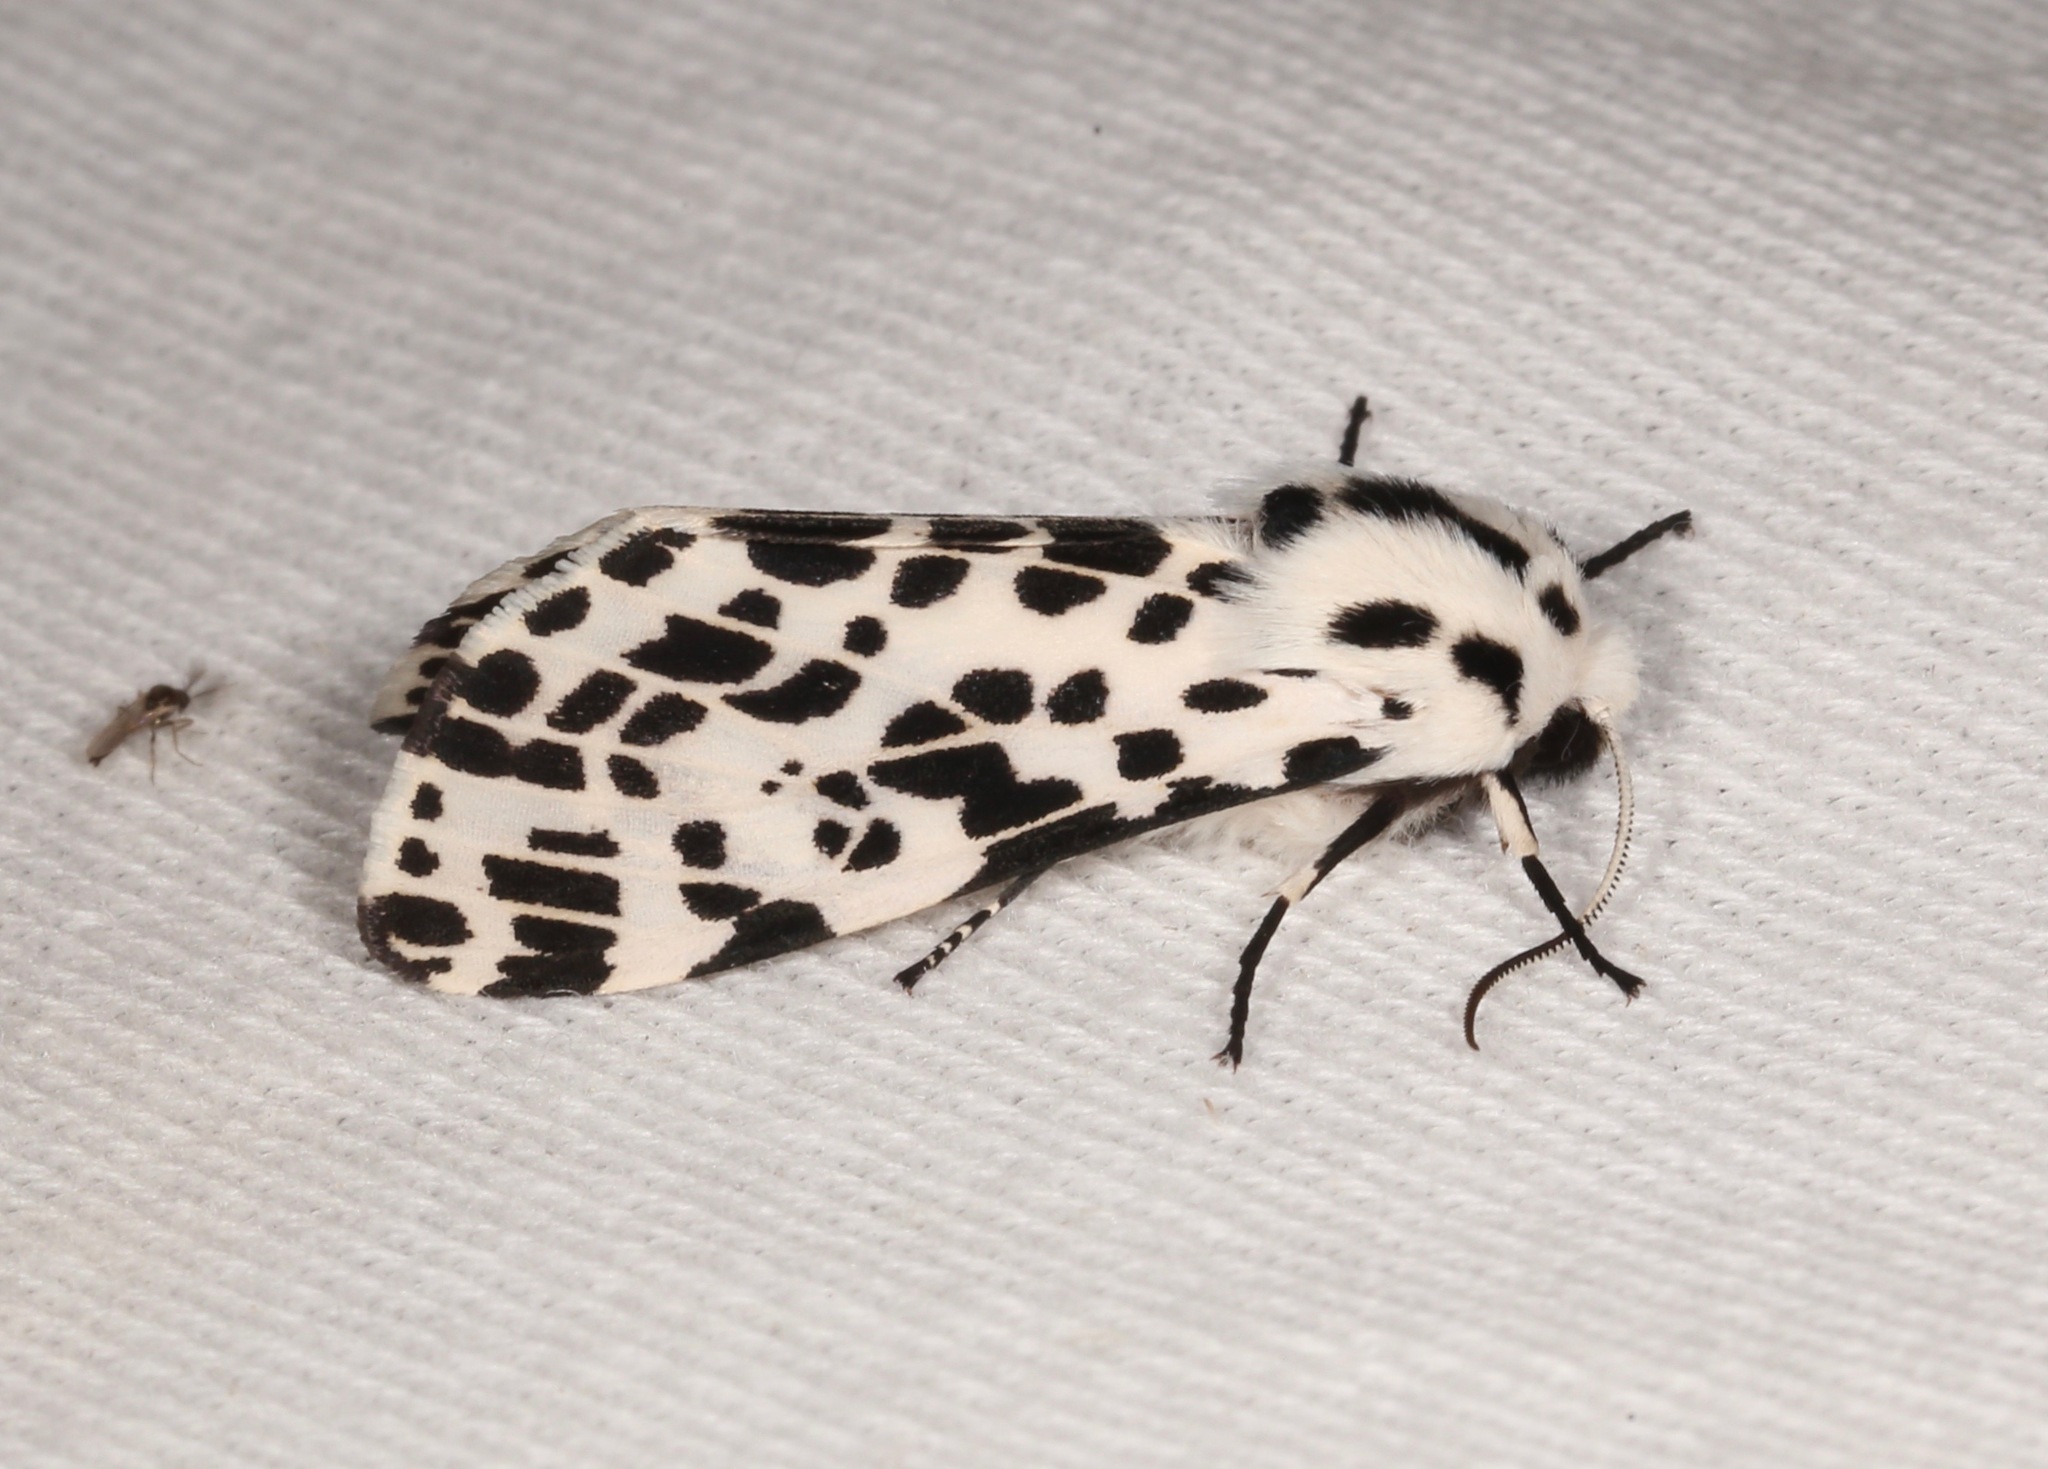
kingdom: Animalia
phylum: Arthropoda
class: Insecta
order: Lepidoptera
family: Erebidae
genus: Hypercompe
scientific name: Hypercompe permaculata
